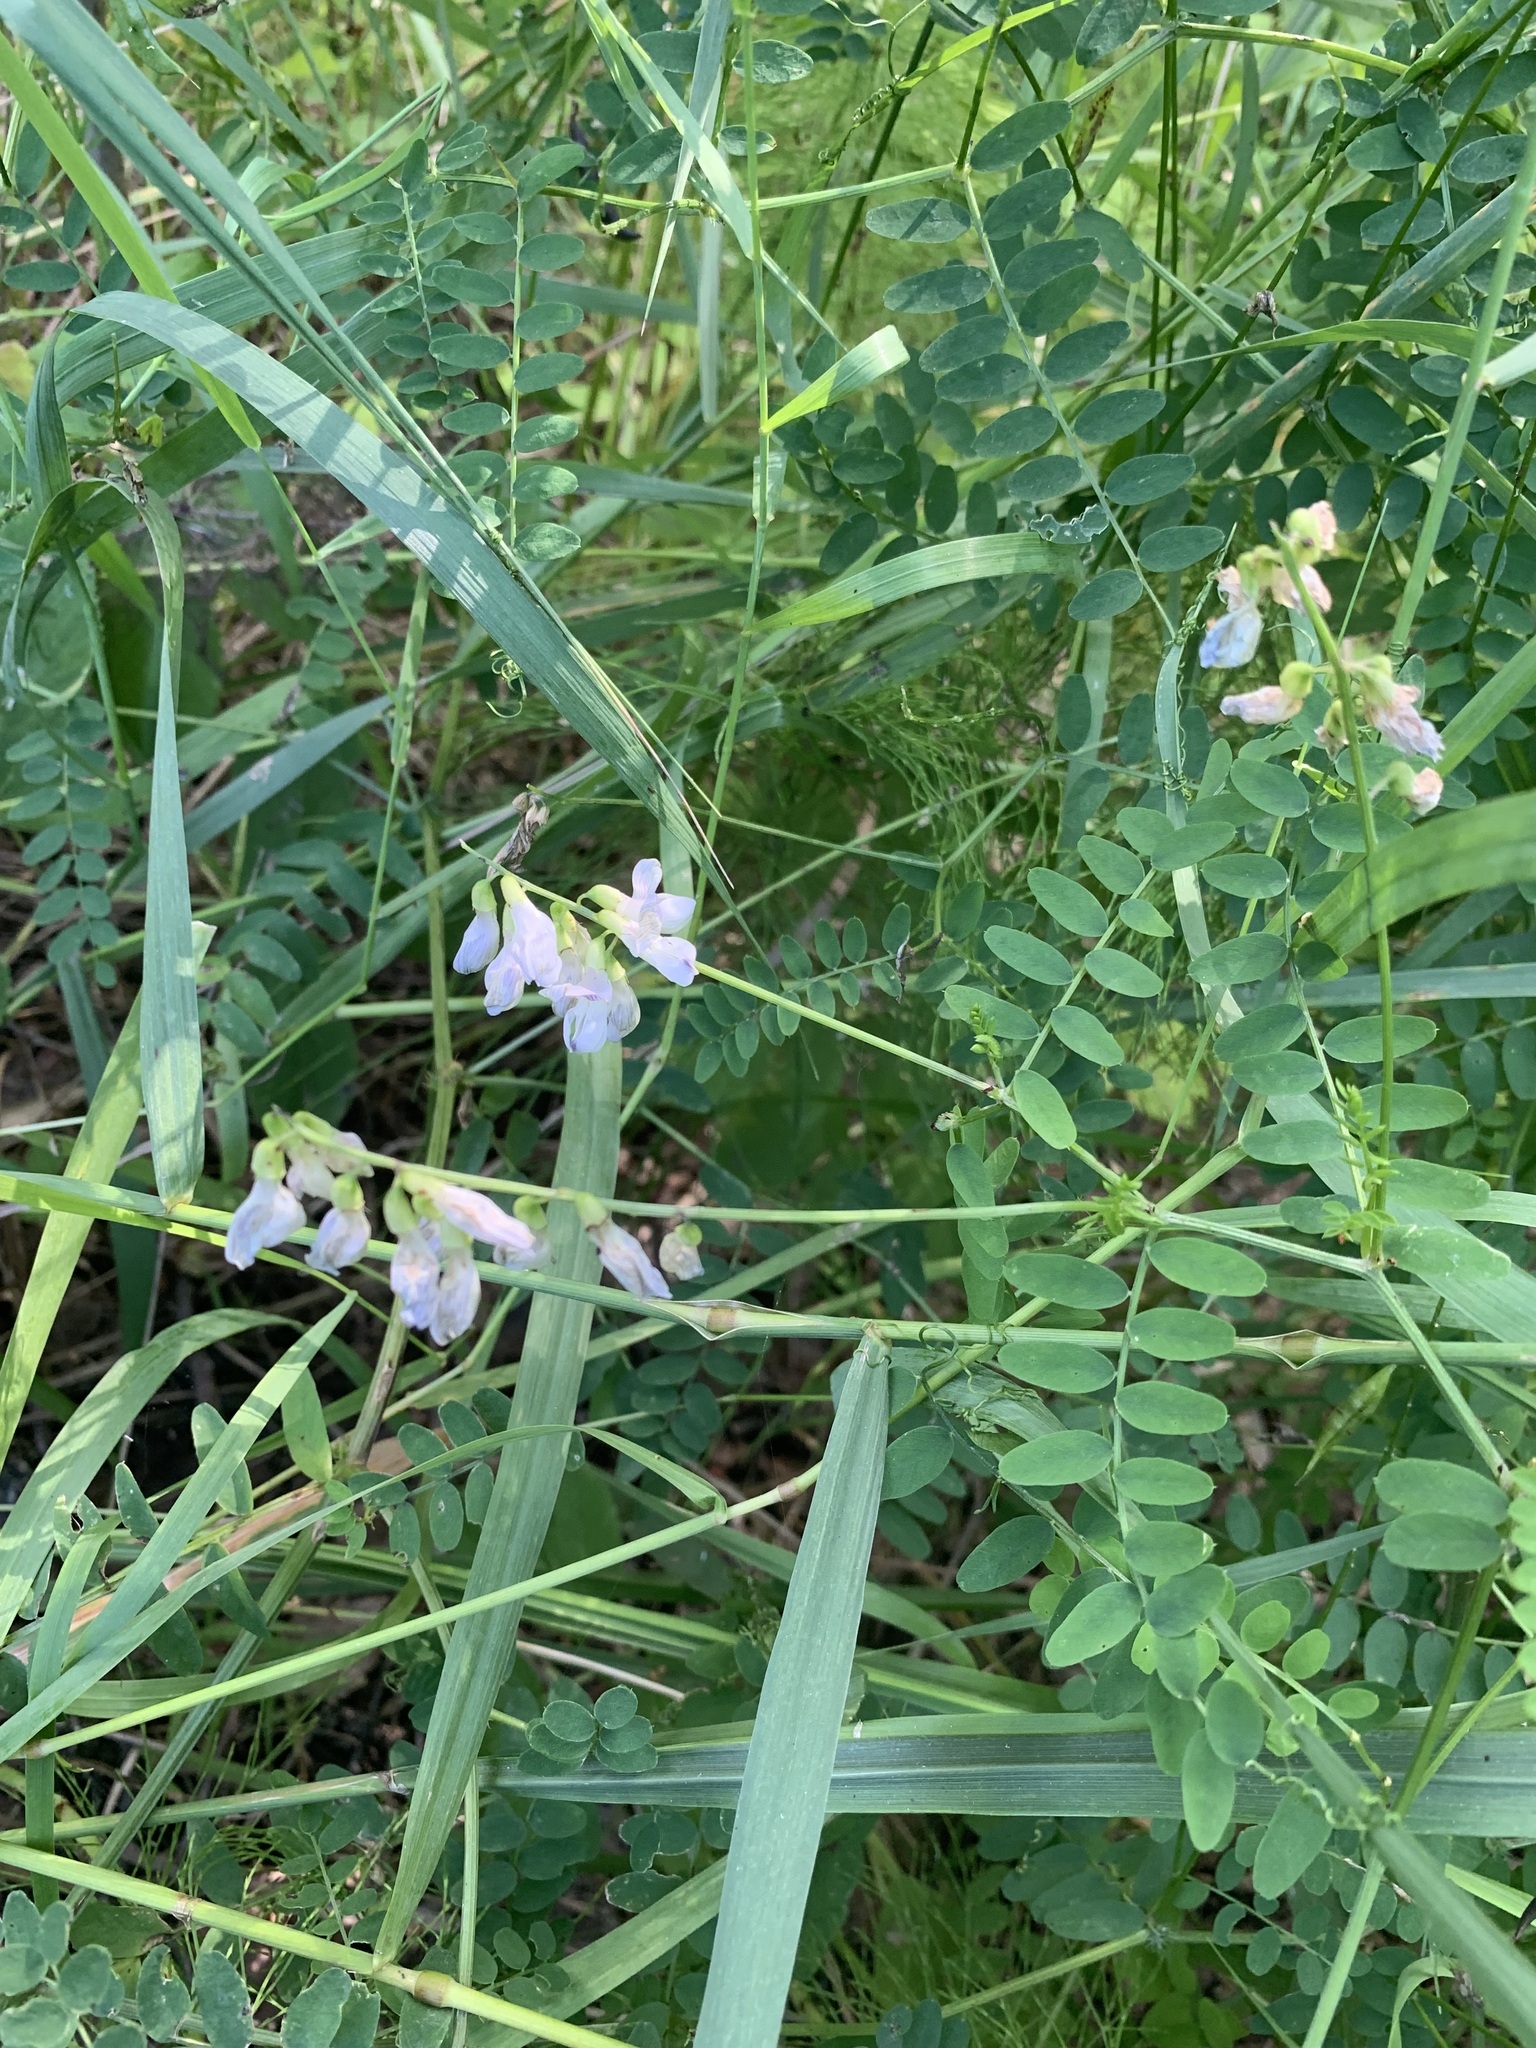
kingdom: Plantae
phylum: Tracheophyta
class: Magnoliopsida
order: Fabales
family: Fabaceae
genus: Vicia
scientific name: Vicia sylvatica
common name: Wood vetch
